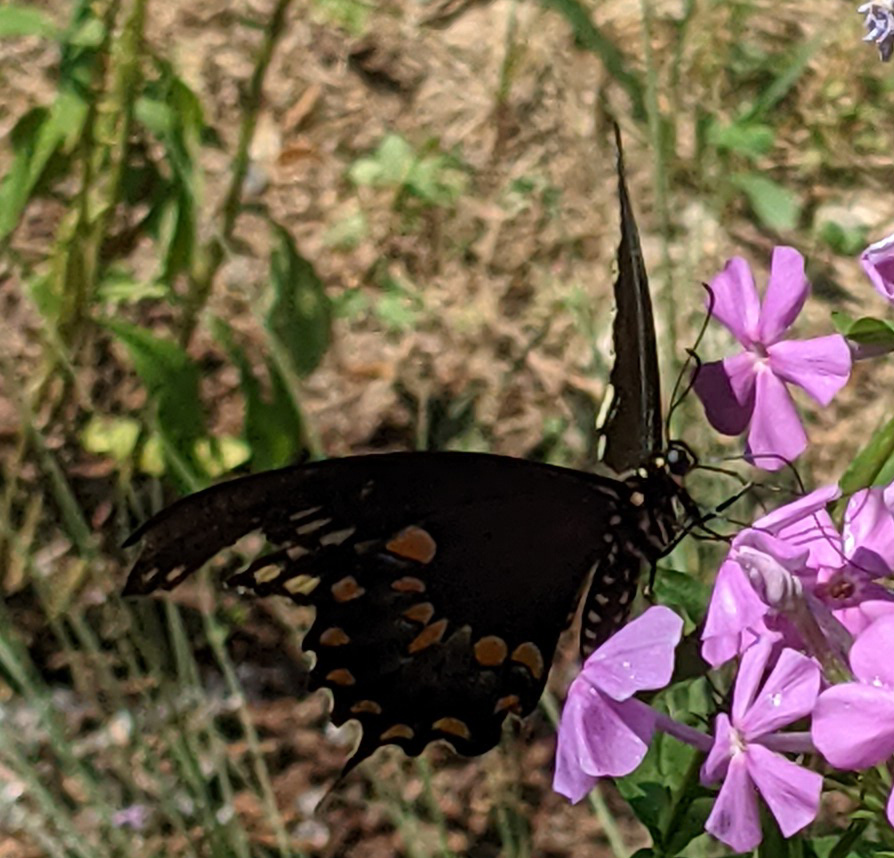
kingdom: Animalia
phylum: Arthropoda
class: Insecta
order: Lepidoptera
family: Papilionidae
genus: Papilio
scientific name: Papilio troilus
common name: Spicebush swallowtail
